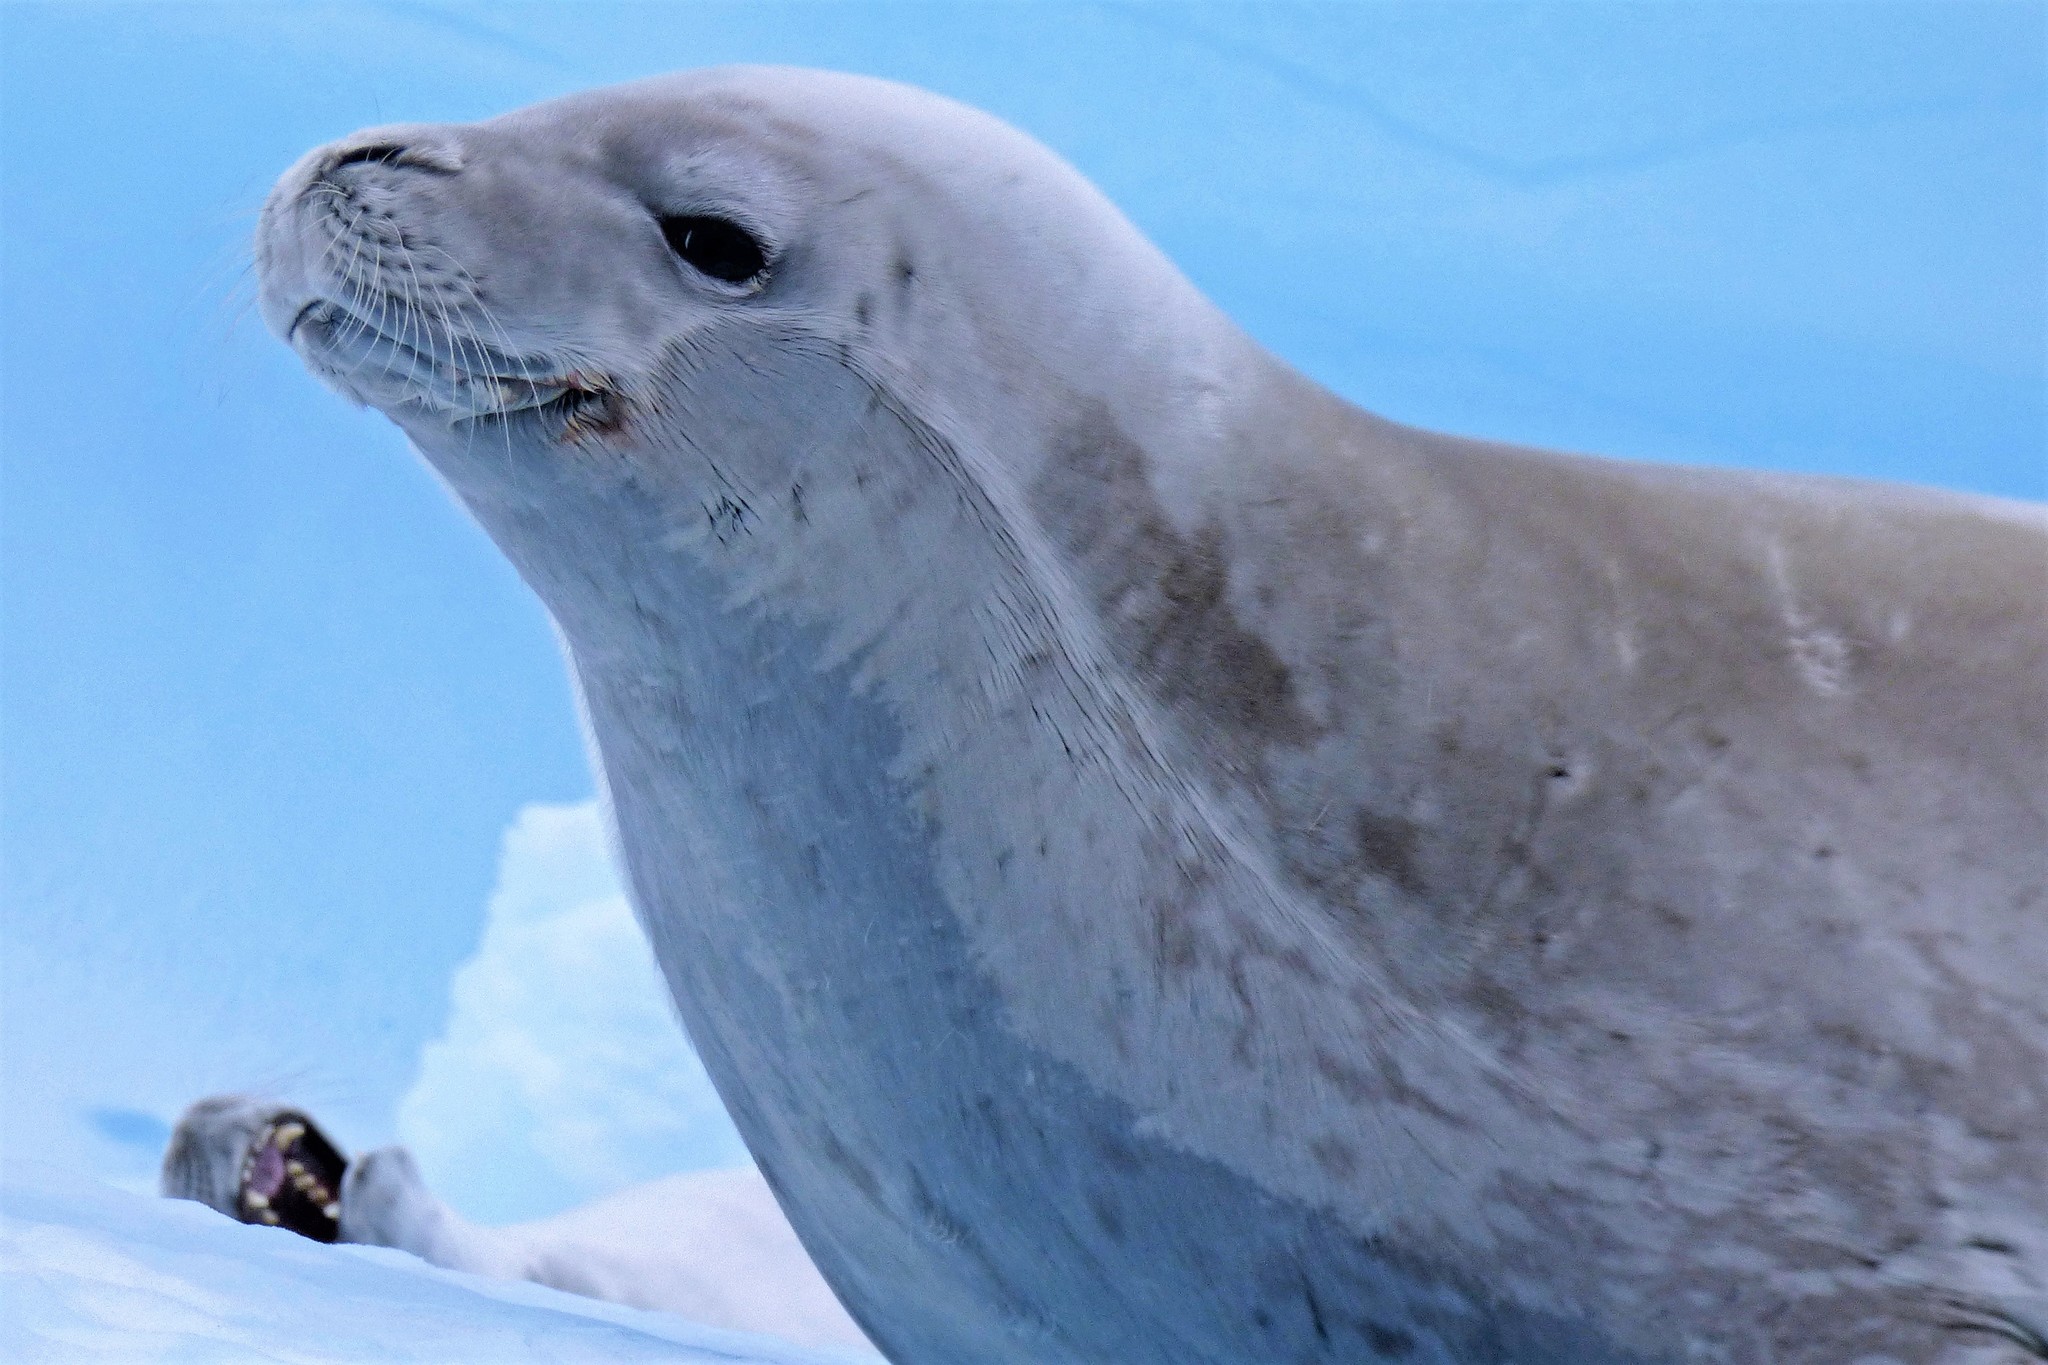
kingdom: Animalia
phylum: Chordata
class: Mammalia
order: Carnivora
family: Phocidae
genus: Lobodon
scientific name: Lobodon carcinophaga
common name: Crabeater seal
